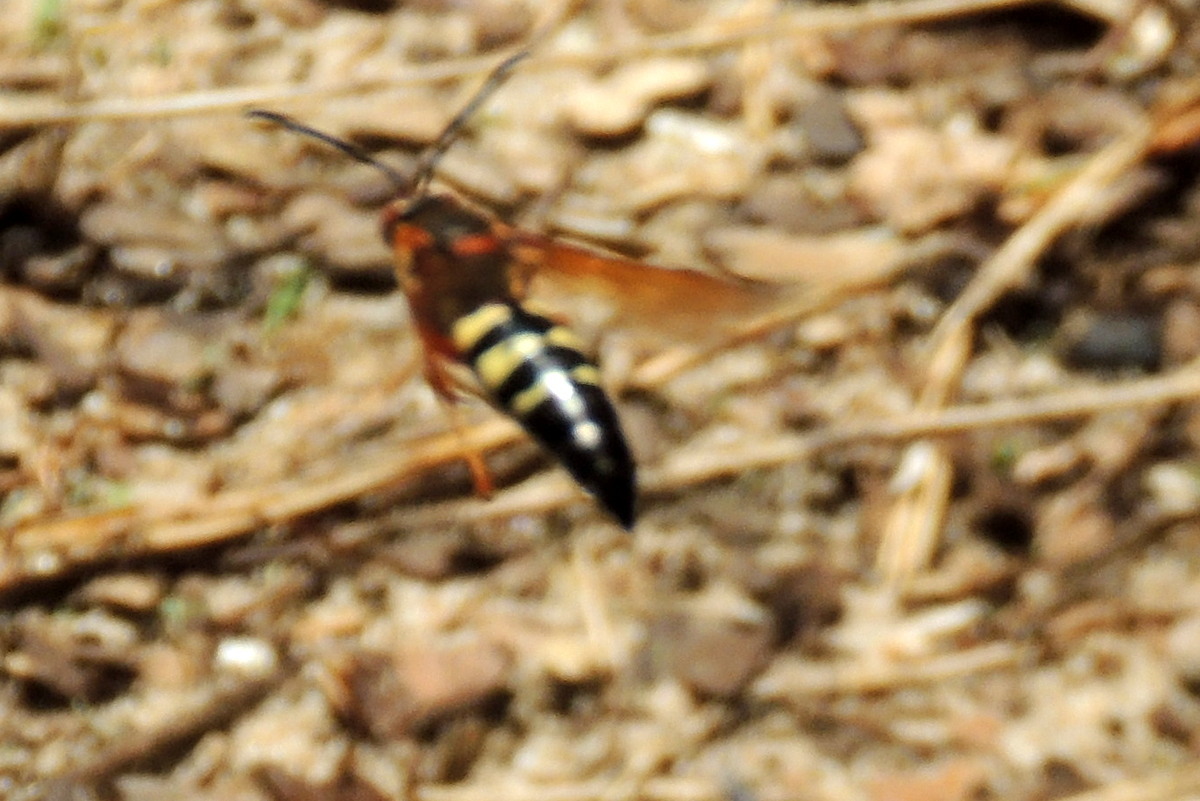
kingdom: Animalia
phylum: Arthropoda
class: Insecta
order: Hymenoptera
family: Crabronidae
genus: Sphecius
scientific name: Sphecius speciosus
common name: Cicada killer
